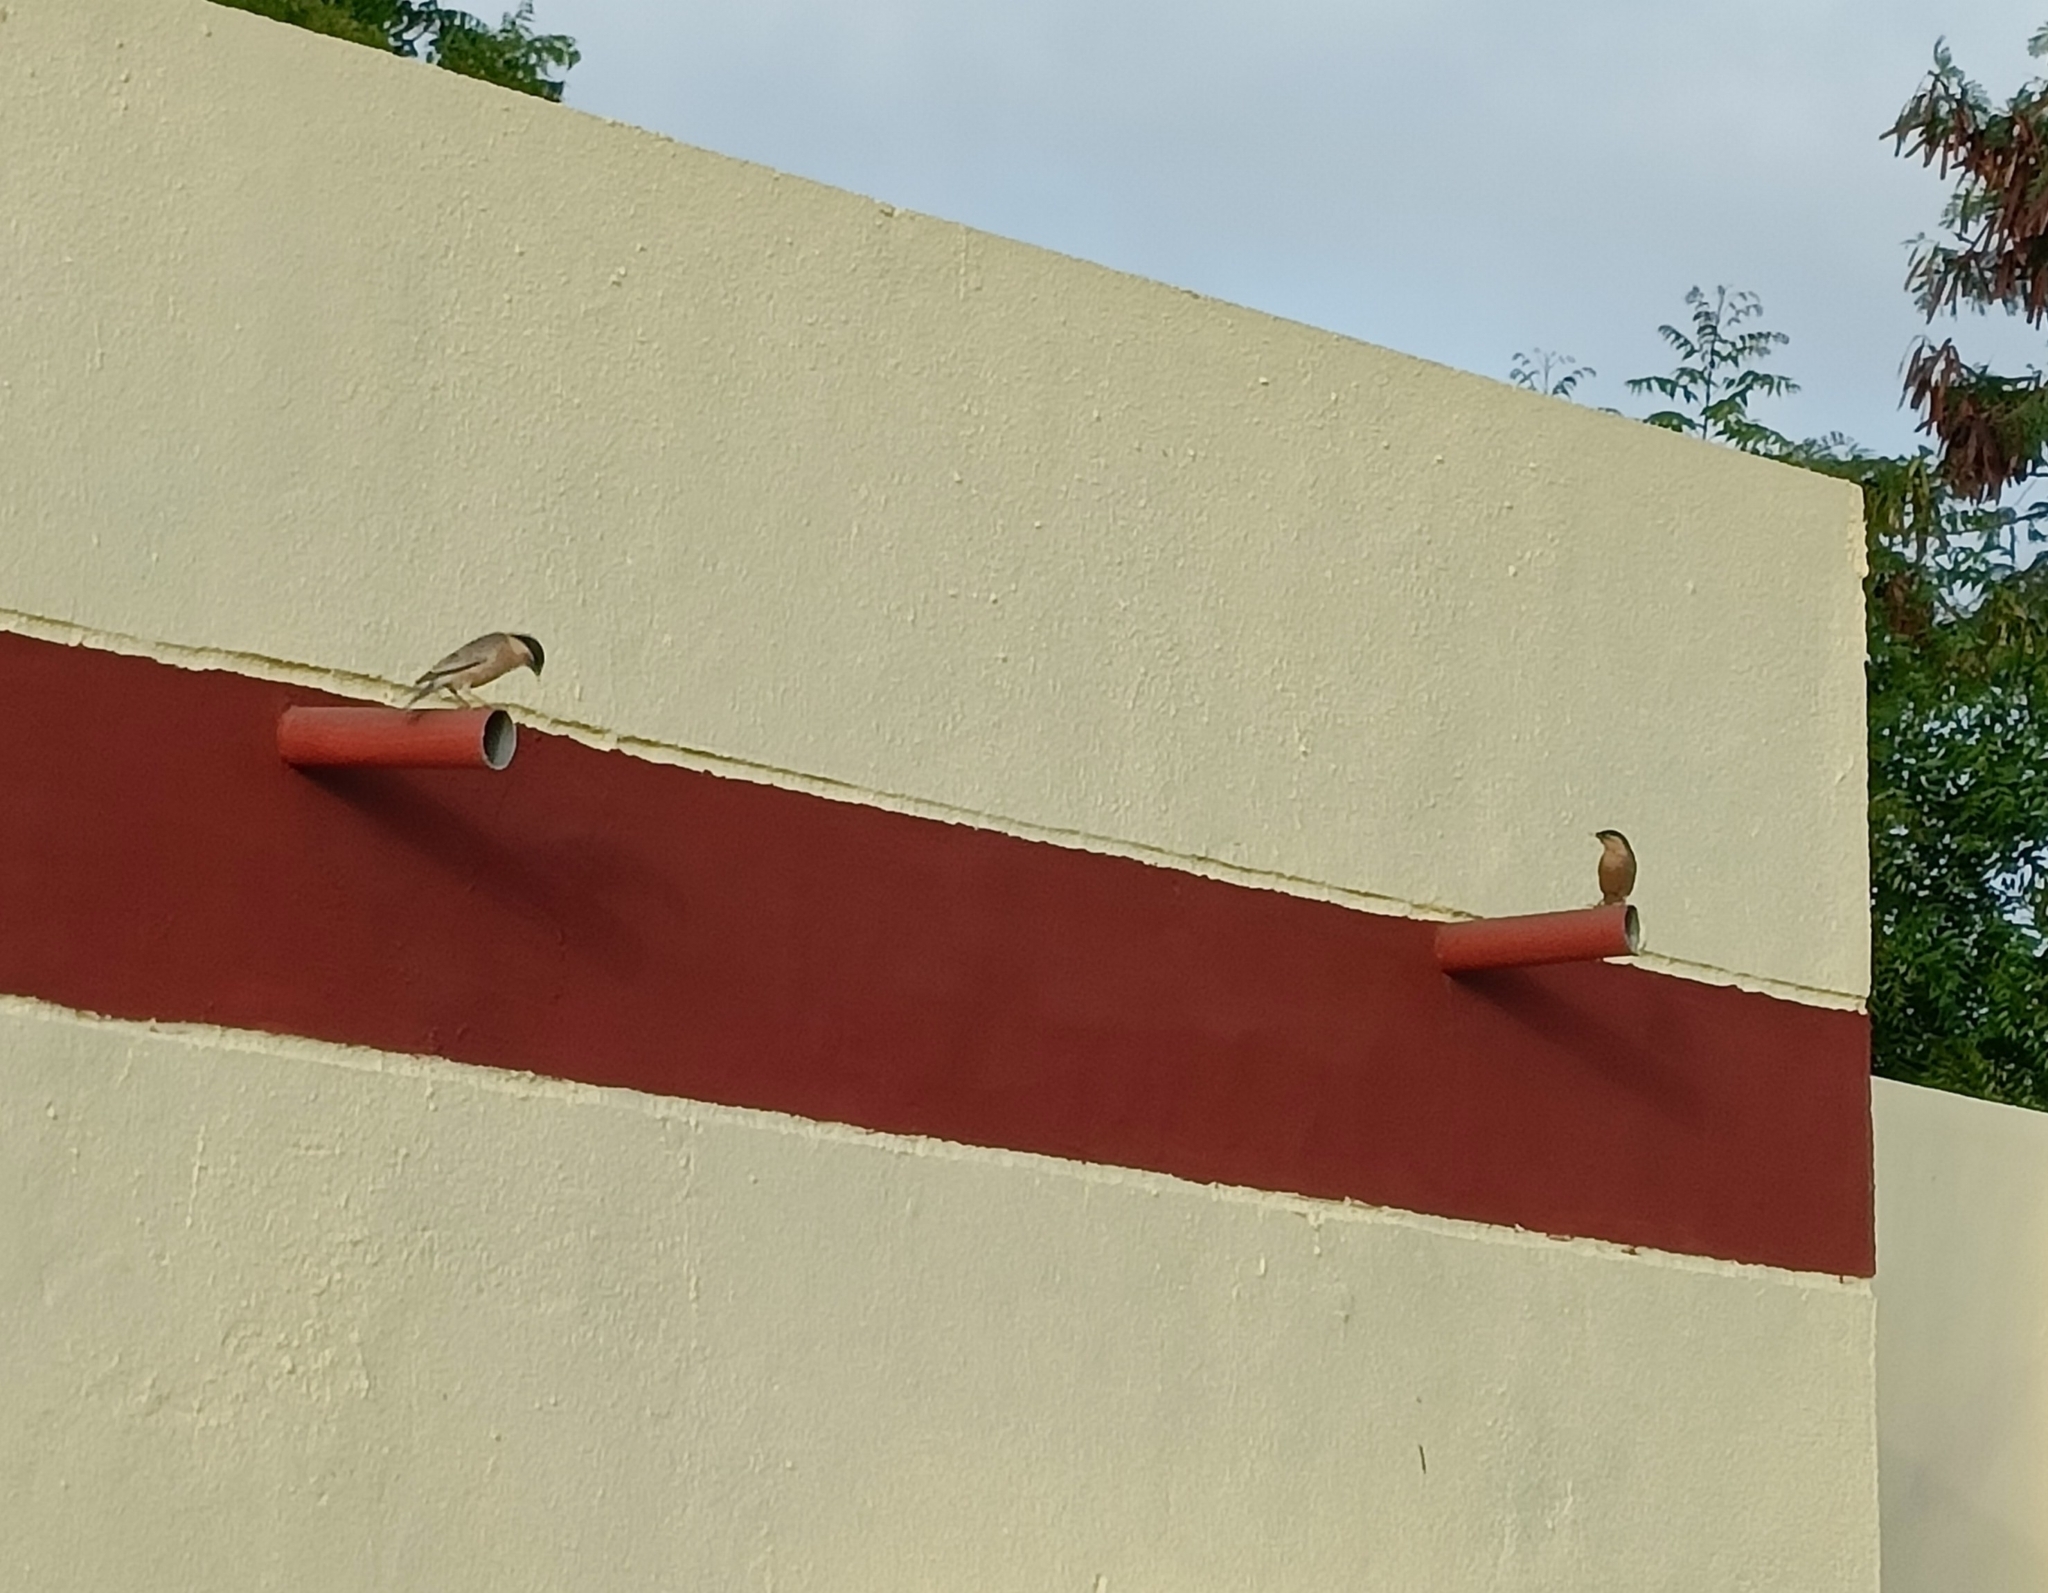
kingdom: Animalia
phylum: Chordata
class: Aves
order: Passeriformes
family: Sturnidae
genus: Sturnia
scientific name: Sturnia pagodarum
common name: Brahminy starling
